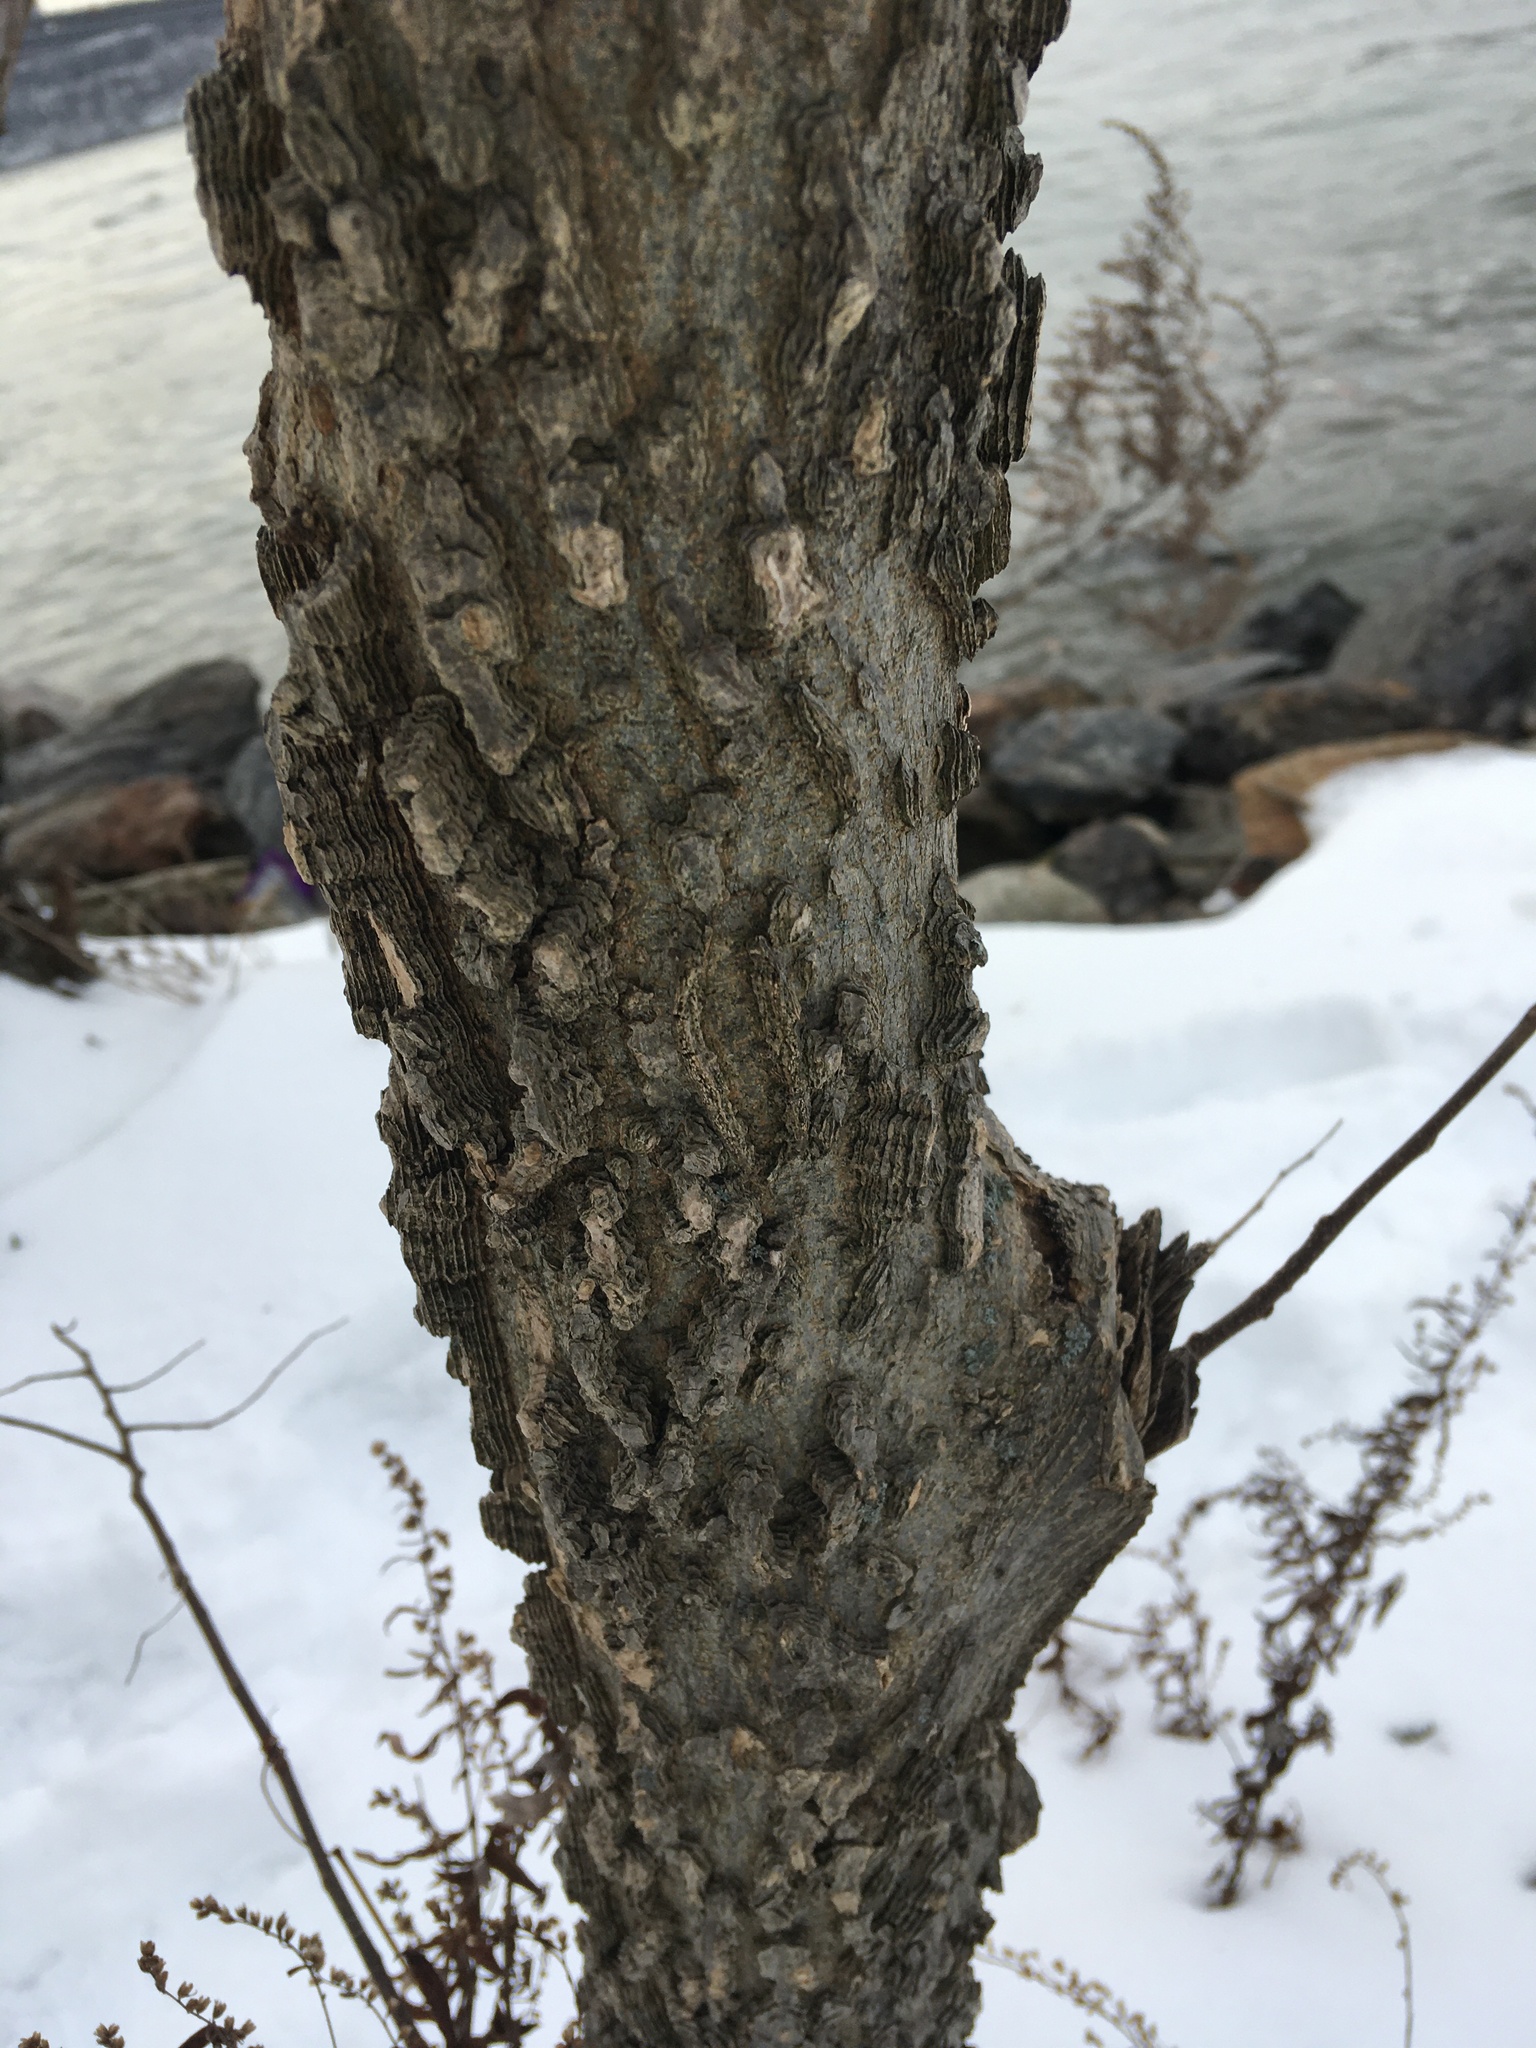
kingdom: Plantae
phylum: Tracheophyta
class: Magnoliopsida
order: Rosales
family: Cannabaceae
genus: Celtis
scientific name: Celtis occidentalis
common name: Common hackberry
